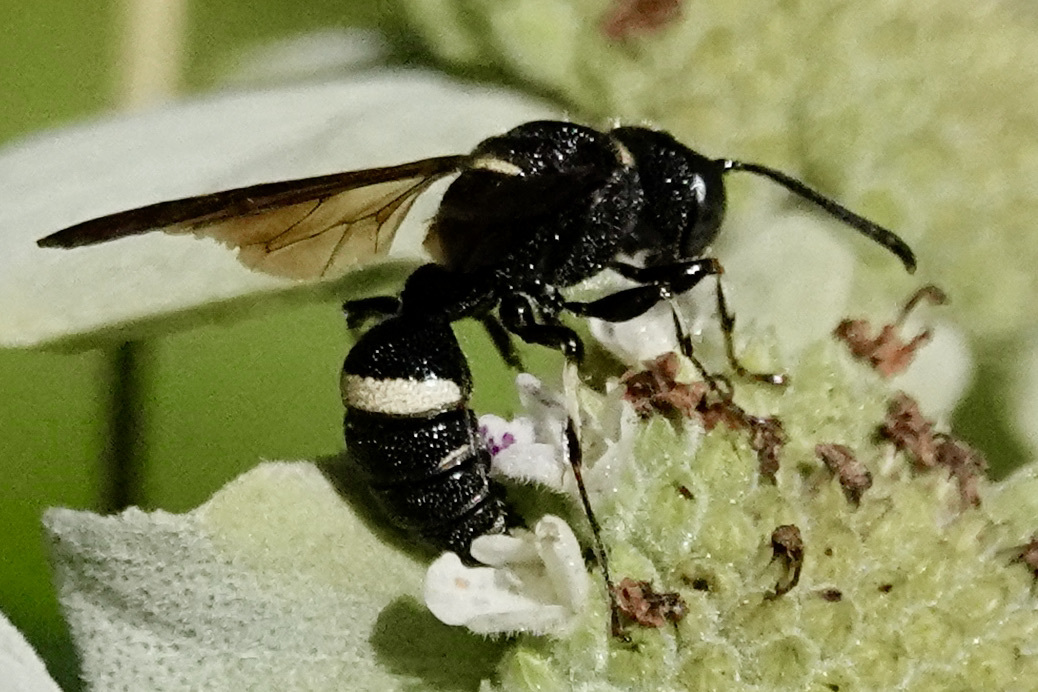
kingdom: Animalia
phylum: Arthropoda
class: Insecta
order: Hymenoptera
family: Crabronidae
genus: Cerceris
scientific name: Cerceris fumipennis
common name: Smokey-winged beetle bandit wasp
